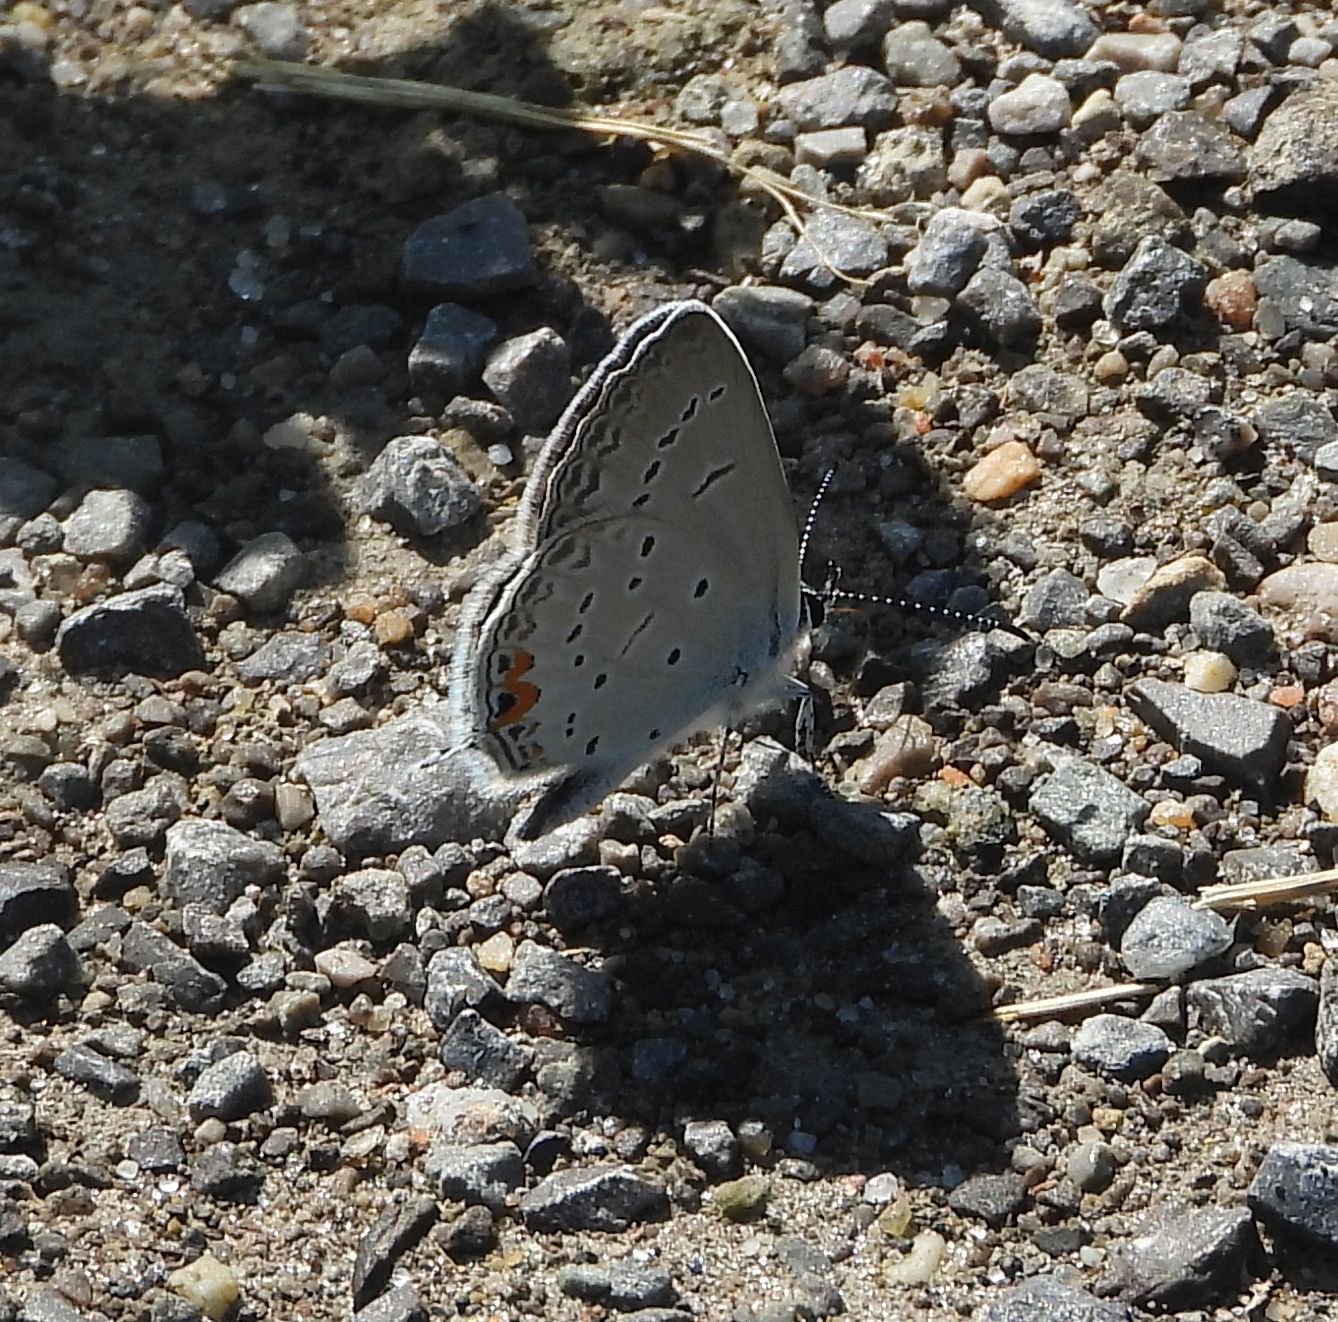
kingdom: Animalia
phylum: Arthropoda
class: Insecta
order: Lepidoptera
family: Lycaenidae
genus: Elkalyce
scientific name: Elkalyce comyntas
